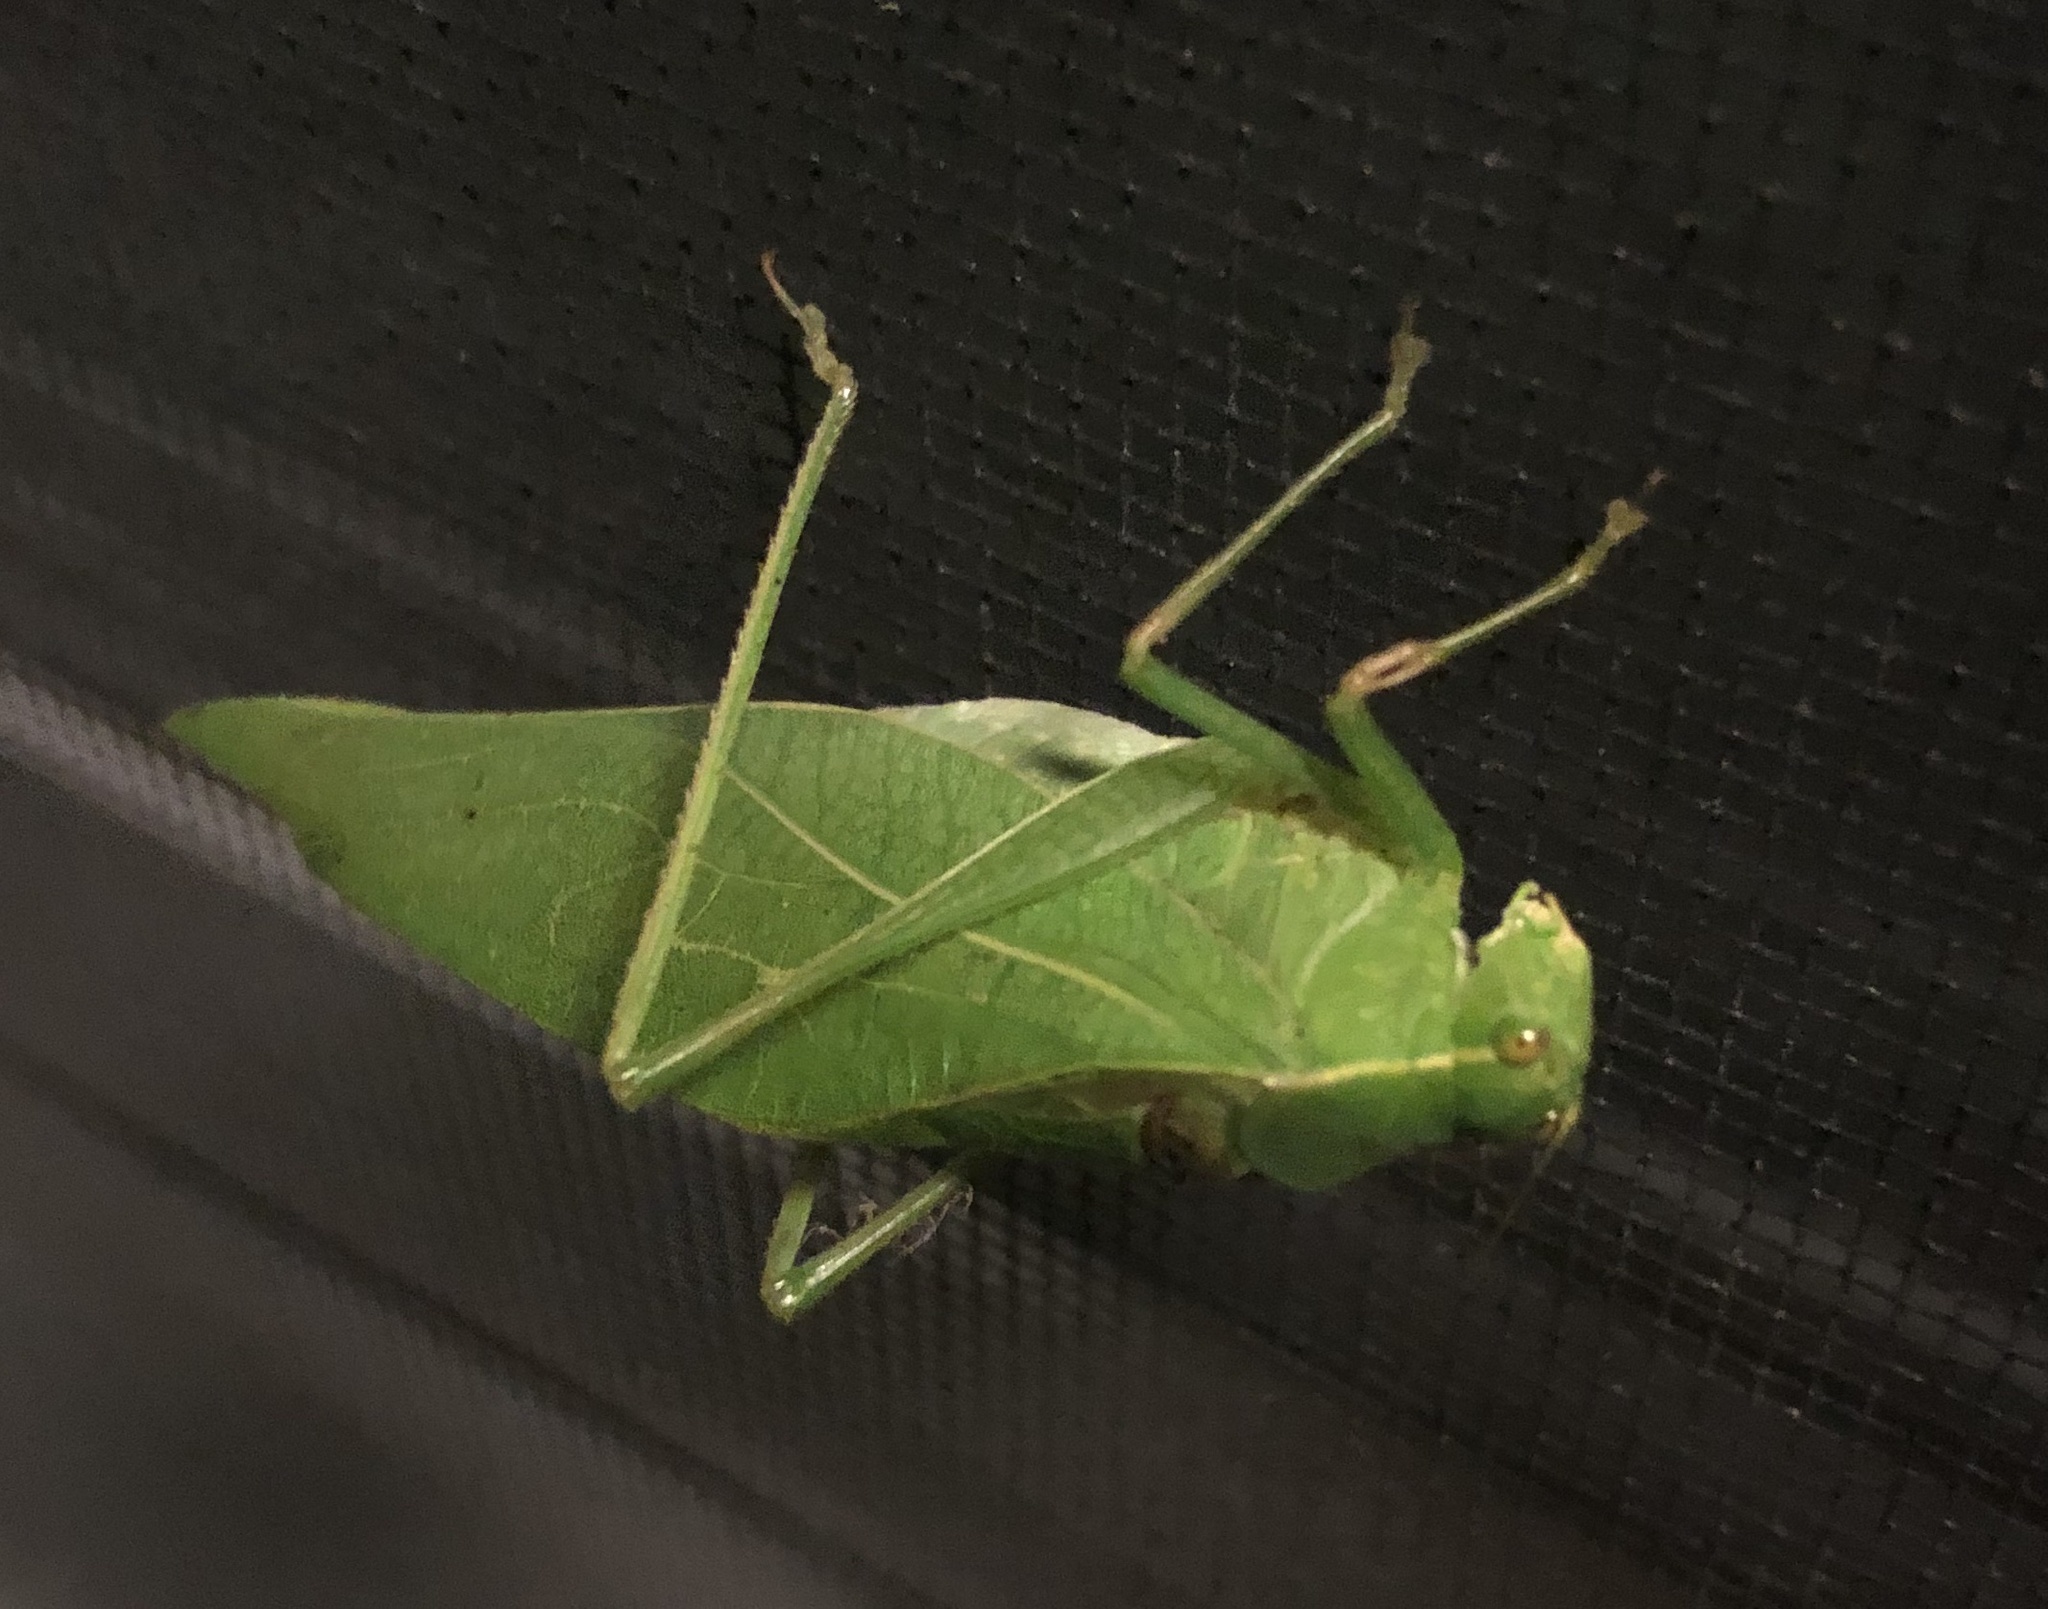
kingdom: Animalia
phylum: Arthropoda
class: Insecta
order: Orthoptera
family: Tettigoniidae
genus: Microcentrum
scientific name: Microcentrum retinerve
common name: Angular-winged katydid
